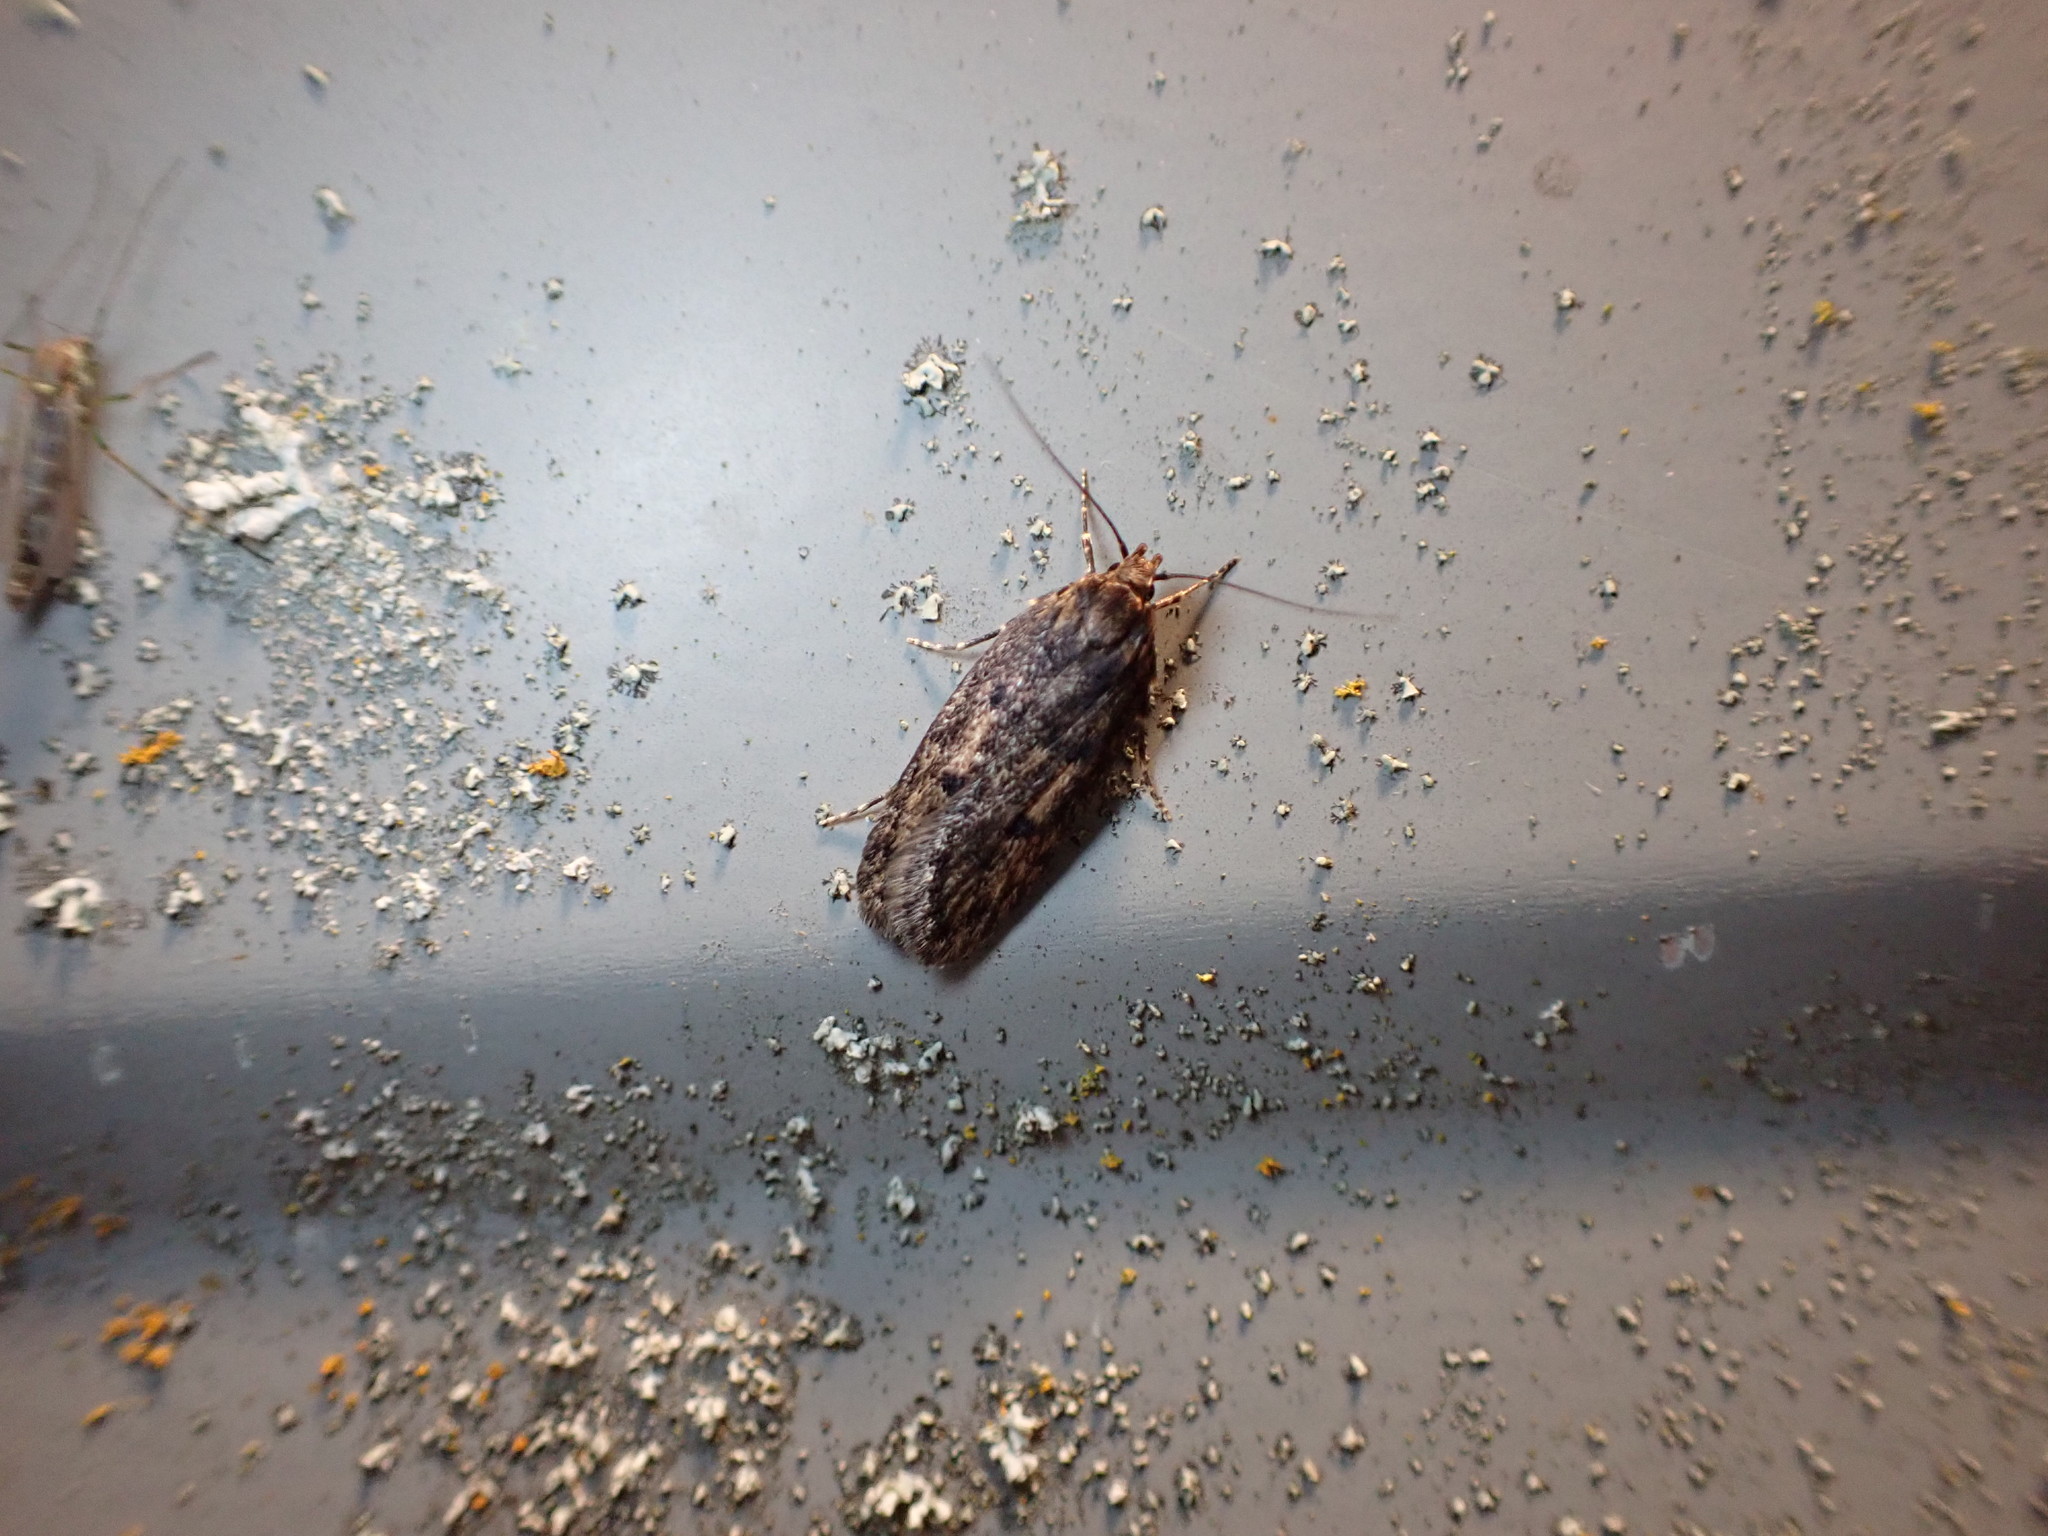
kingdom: Animalia
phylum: Arthropoda
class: Insecta
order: Lepidoptera
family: Oecophoridae
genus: Hofmannophila
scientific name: Hofmannophila pseudospretella
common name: Brown house moth
